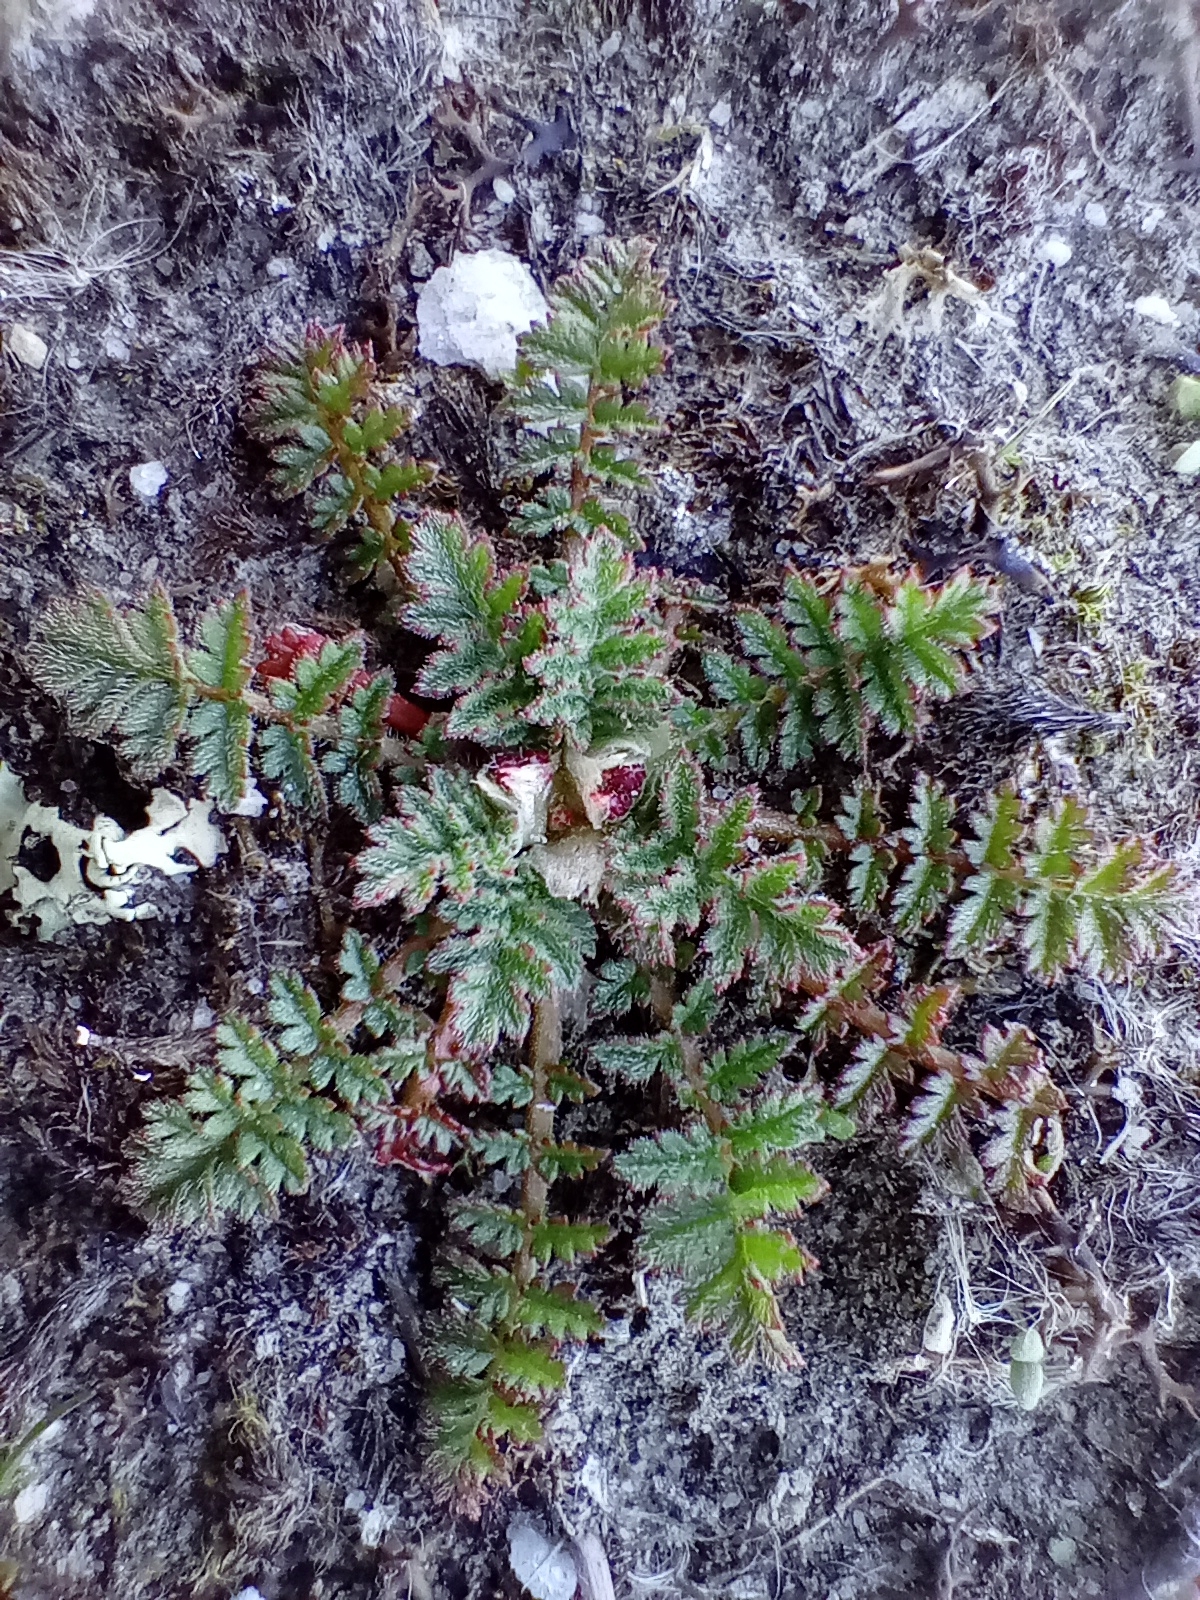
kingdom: Plantae
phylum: Tracheophyta
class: Magnoliopsida
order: Geraniales
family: Geraniaceae
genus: Erodium
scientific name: Erodium cicutarium
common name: Common stork's-bill
